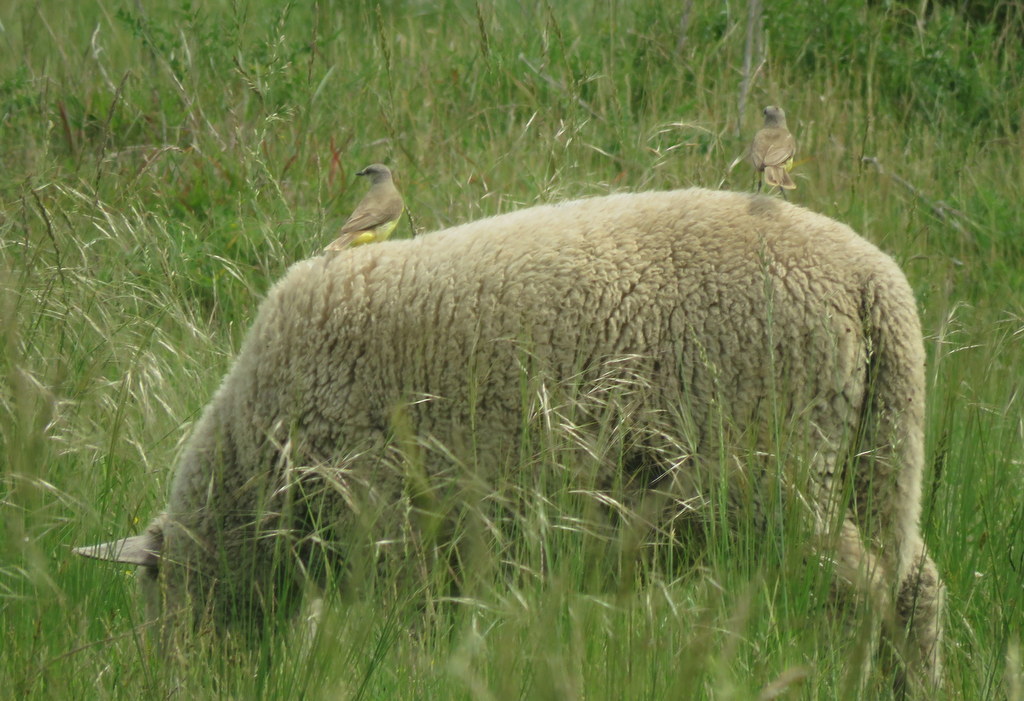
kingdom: Animalia
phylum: Chordata
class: Aves
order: Passeriformes
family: Tyrannidae
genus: Machetornis
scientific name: Machetornis rixosa
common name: Cattle tyrant
